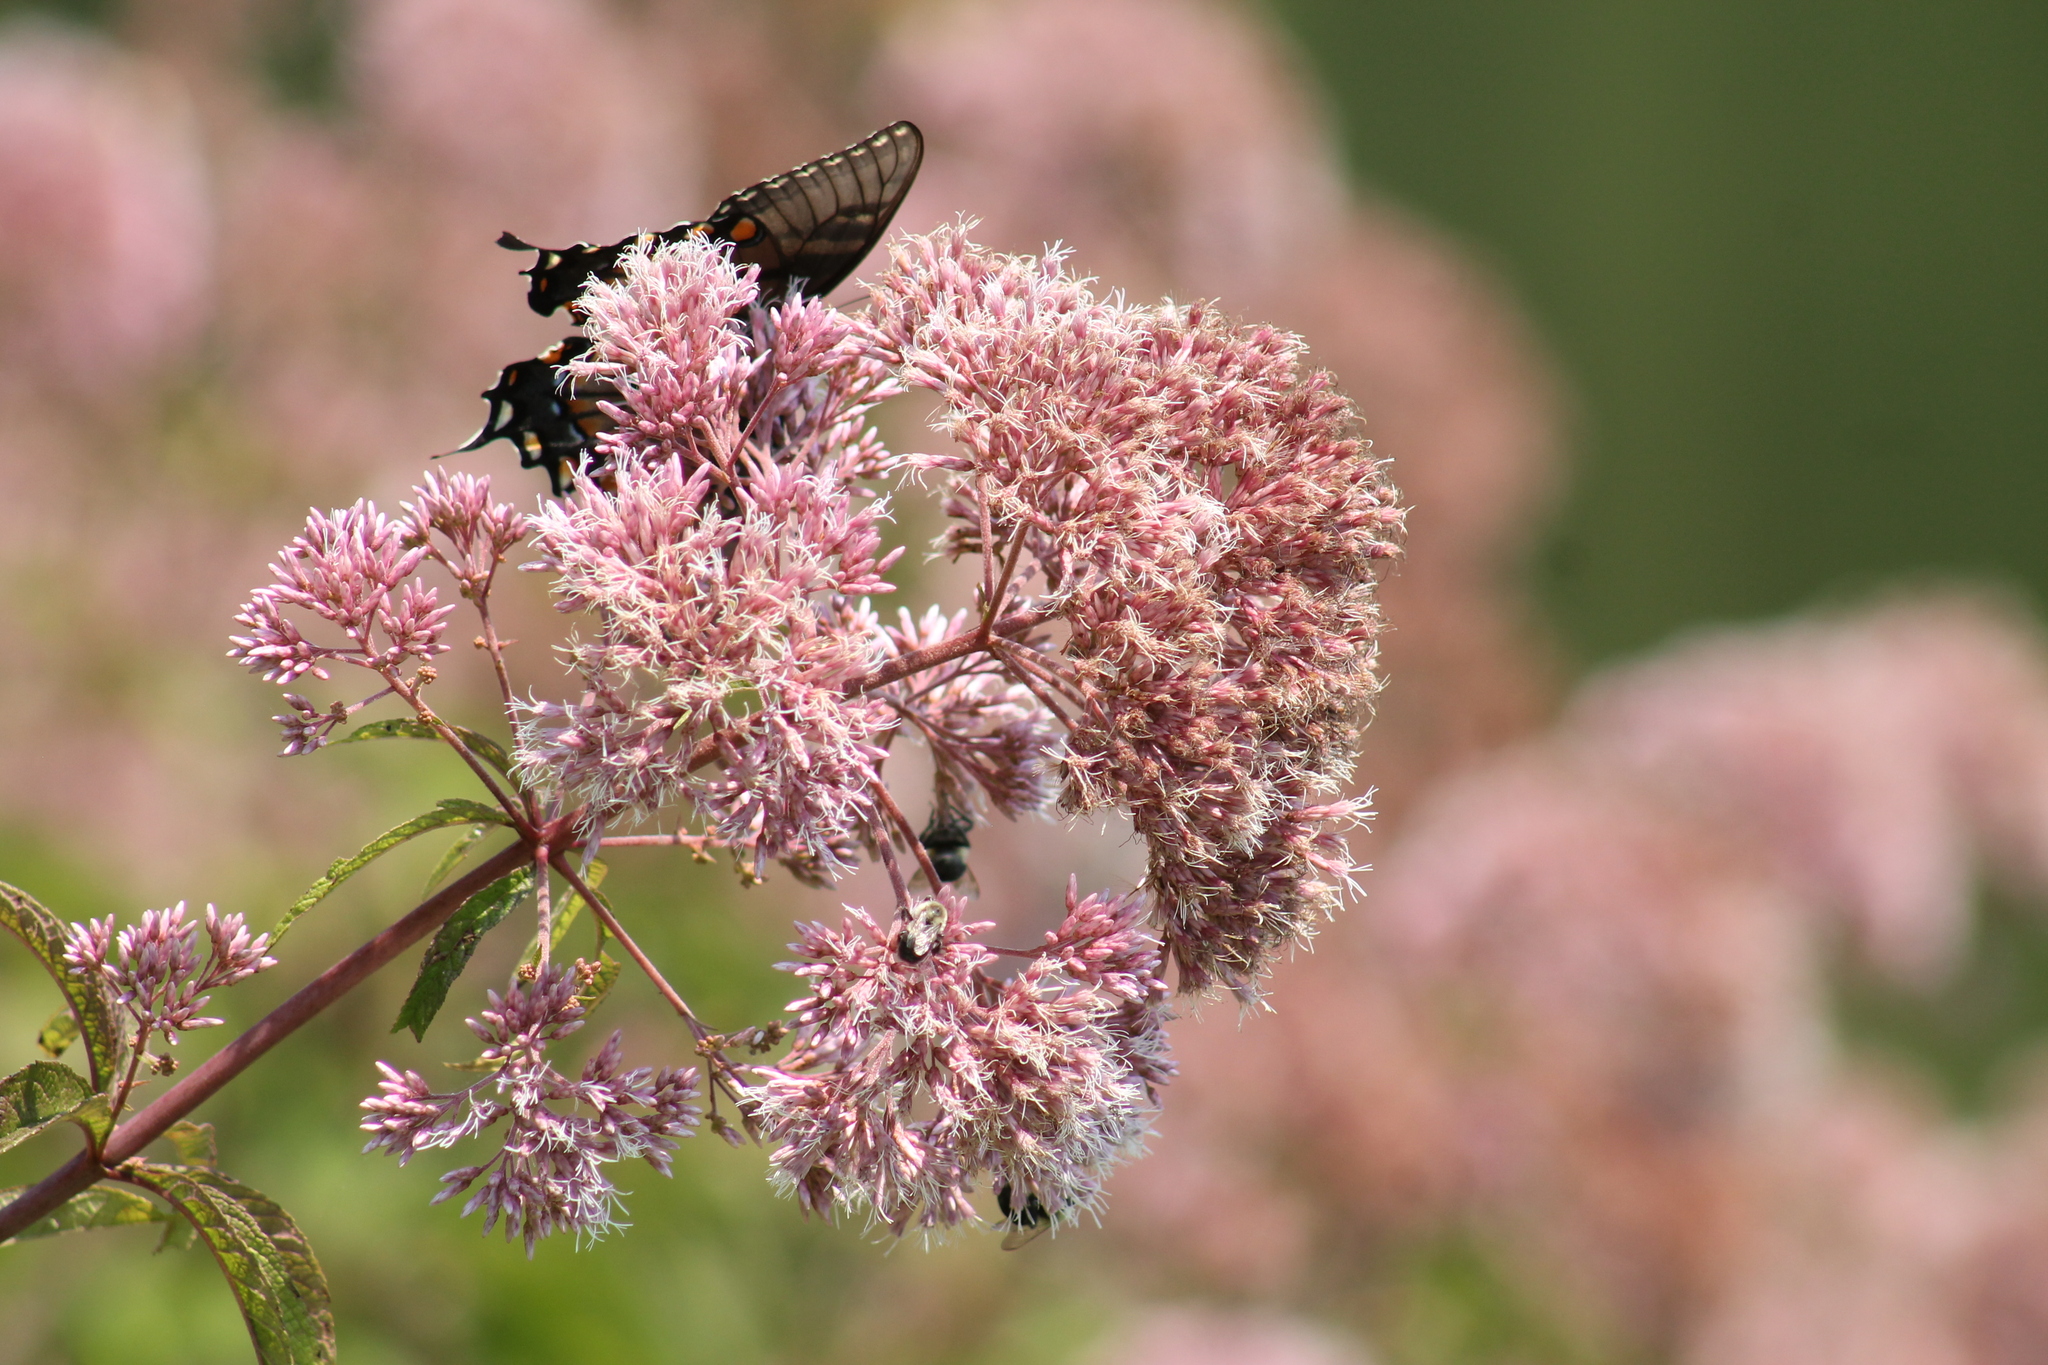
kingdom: Plantae
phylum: Tracheophyta
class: Magnoliopsida
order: Asterales
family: Asteraceae
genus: Eutrochium
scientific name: Eutrochium fistulosum
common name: Trumpetweed
